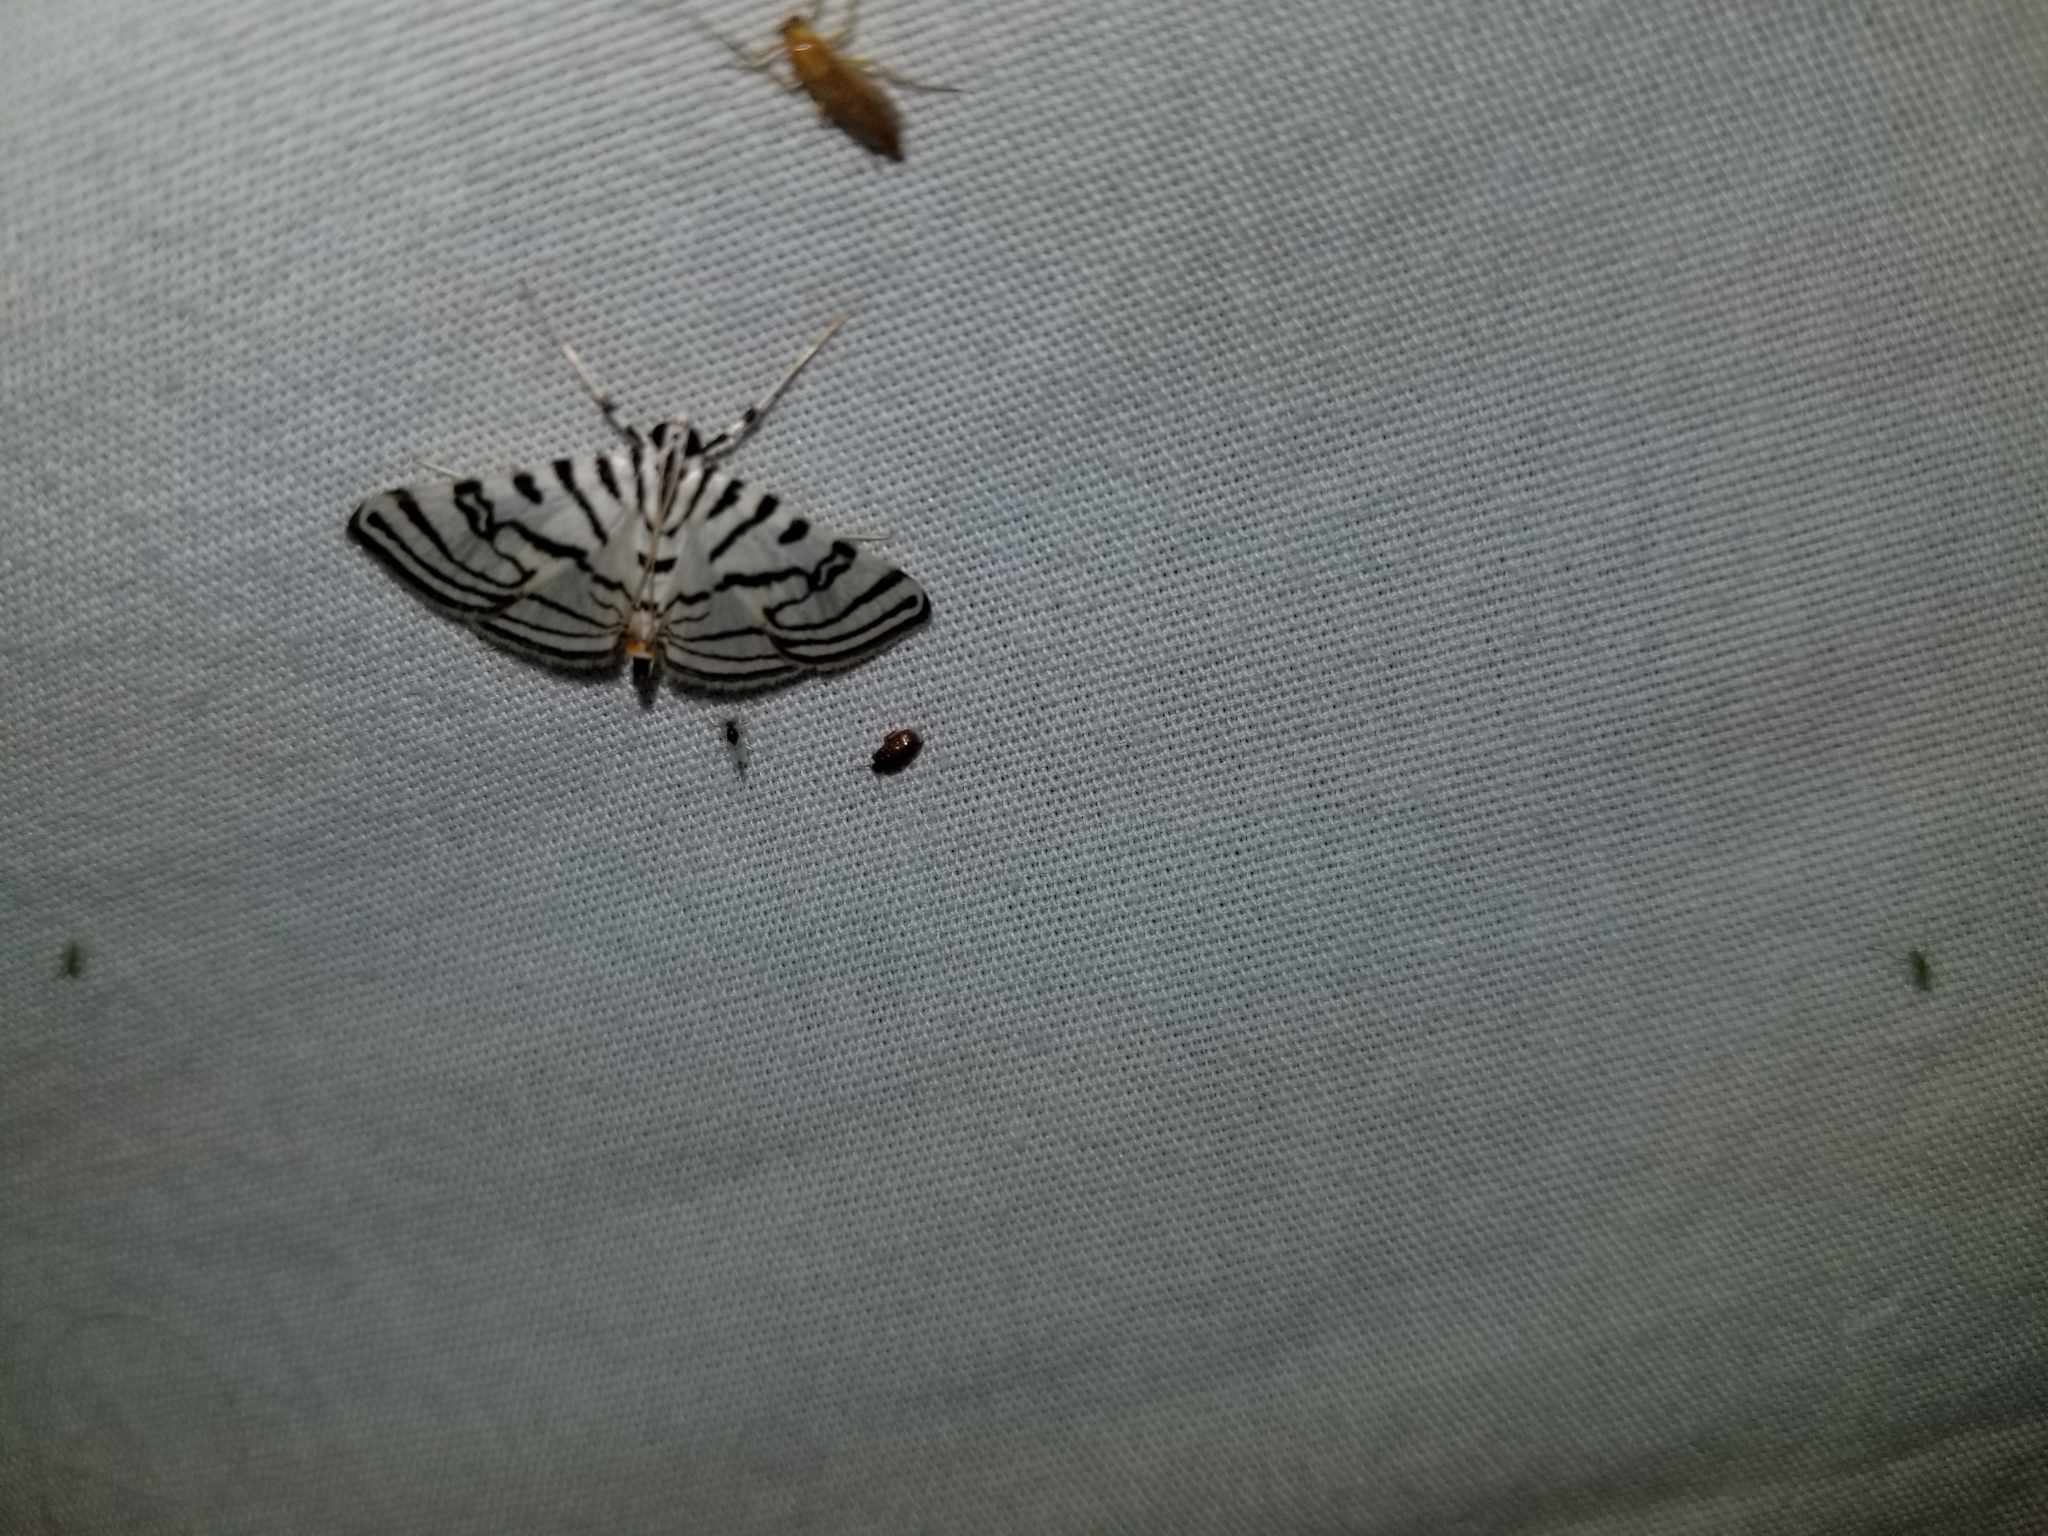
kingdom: Animalia
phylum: Arthropoda
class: Insecta
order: Lepidoptera
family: Crambidae
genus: Conchylodes
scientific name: Conchylodes ovulalis
